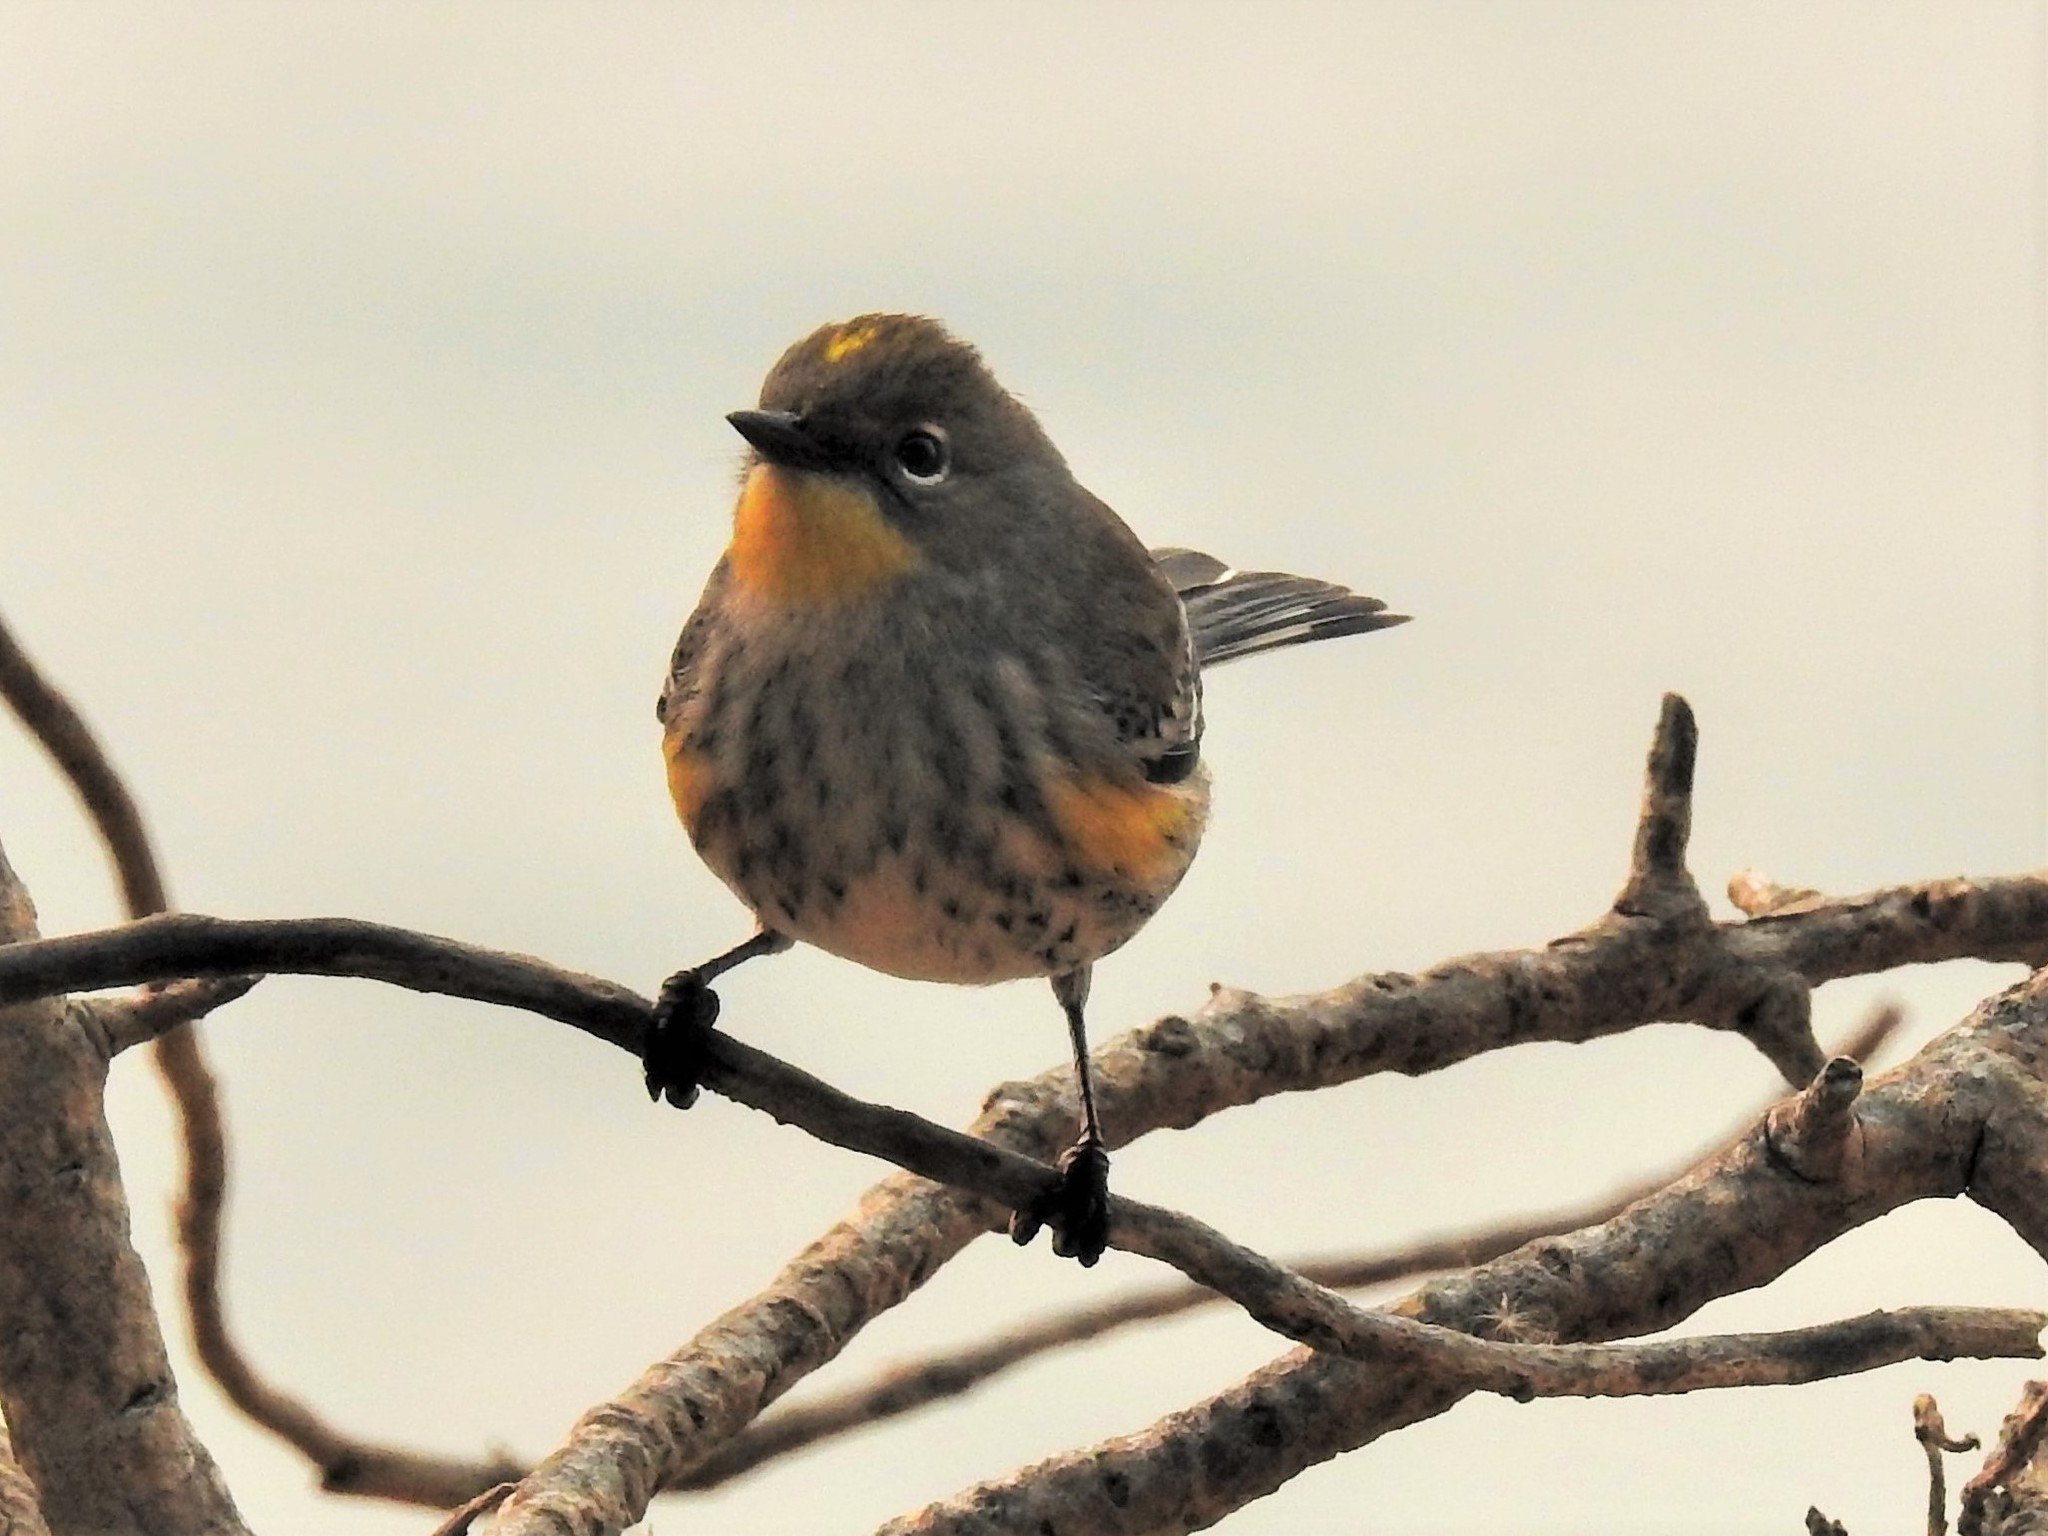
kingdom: Animalia
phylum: Chordata
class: Aves
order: Passeriformes
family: Parulidae
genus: Setophaga
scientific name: Setophaga coronata
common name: Myrtle warbler
